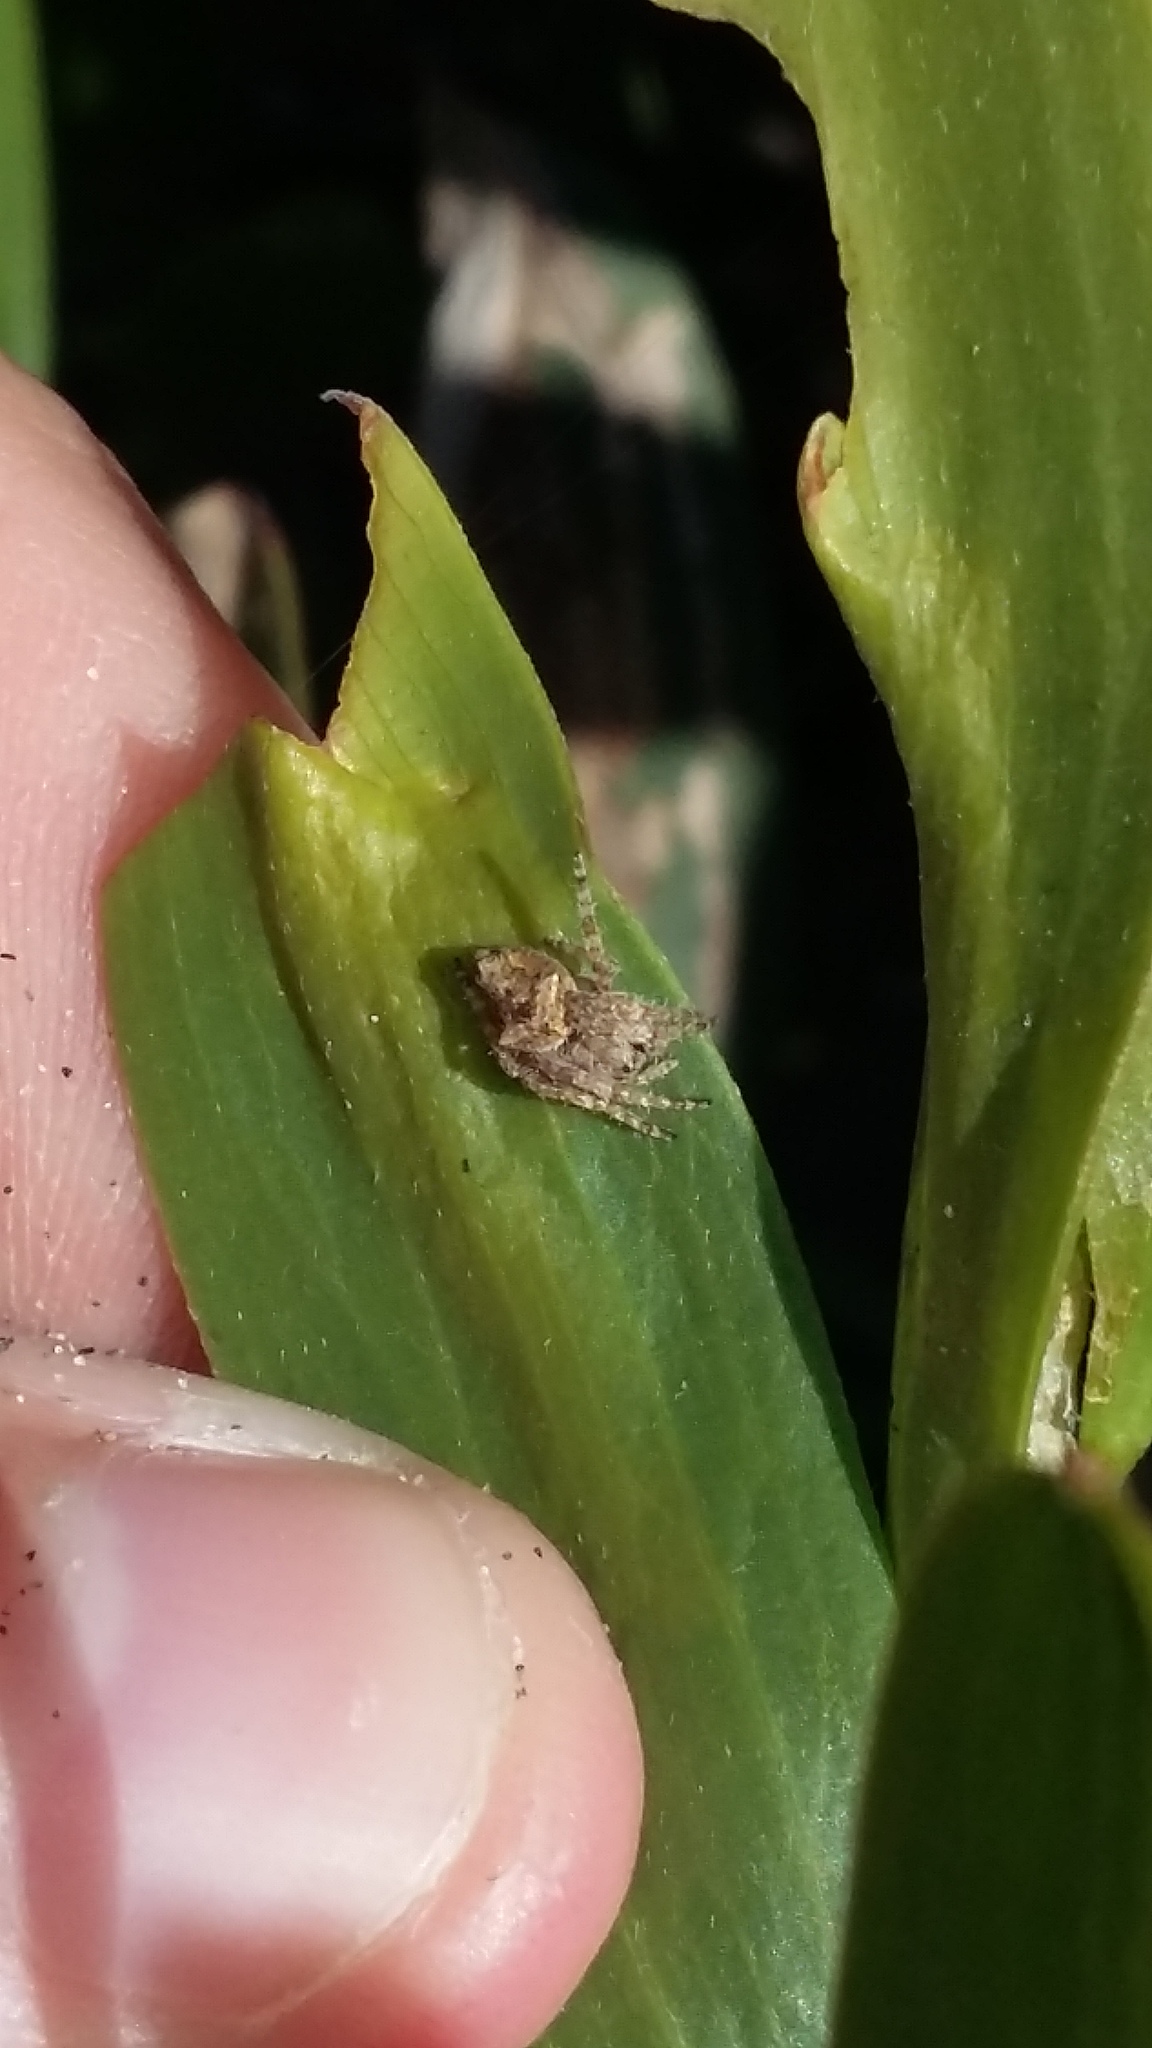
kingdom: Animalia
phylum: Arthropoda
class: Arachnida
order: Araneae
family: Araneidae
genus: Eriophora
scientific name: Eriophora pustulosa
